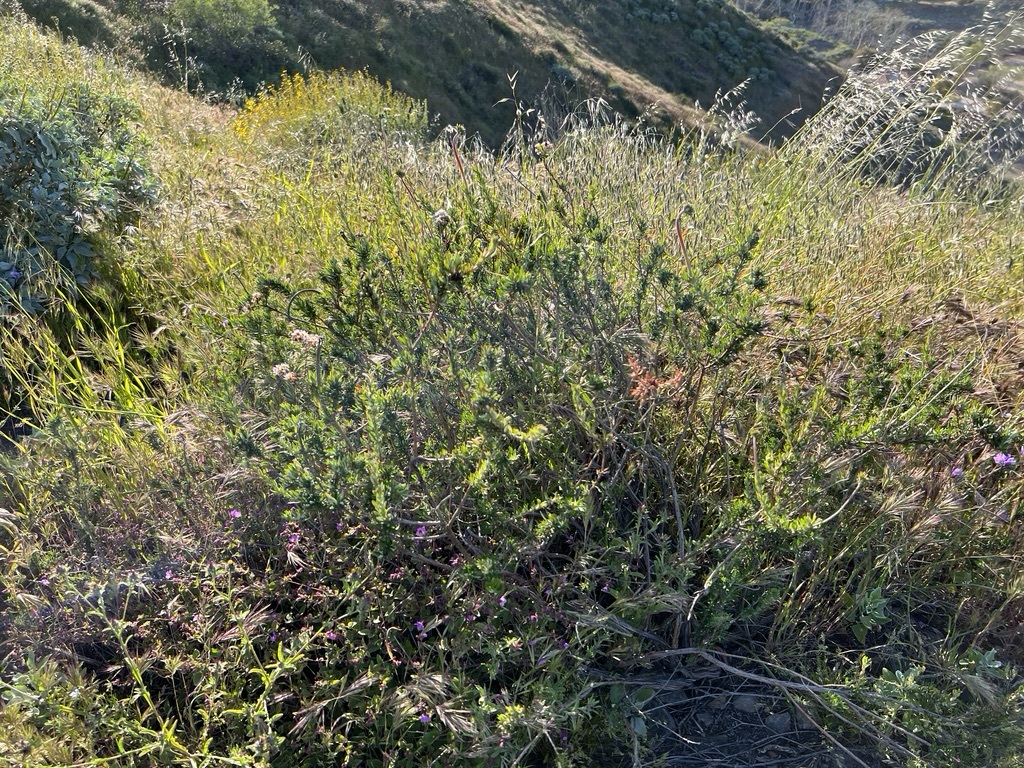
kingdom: Plantae
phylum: Tracheophyta
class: Magnoliopsida
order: Caryophyllales
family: Polygonaceae
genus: Eriogonum
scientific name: Eriogonum fasciculatum
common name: California wild buckwheat
